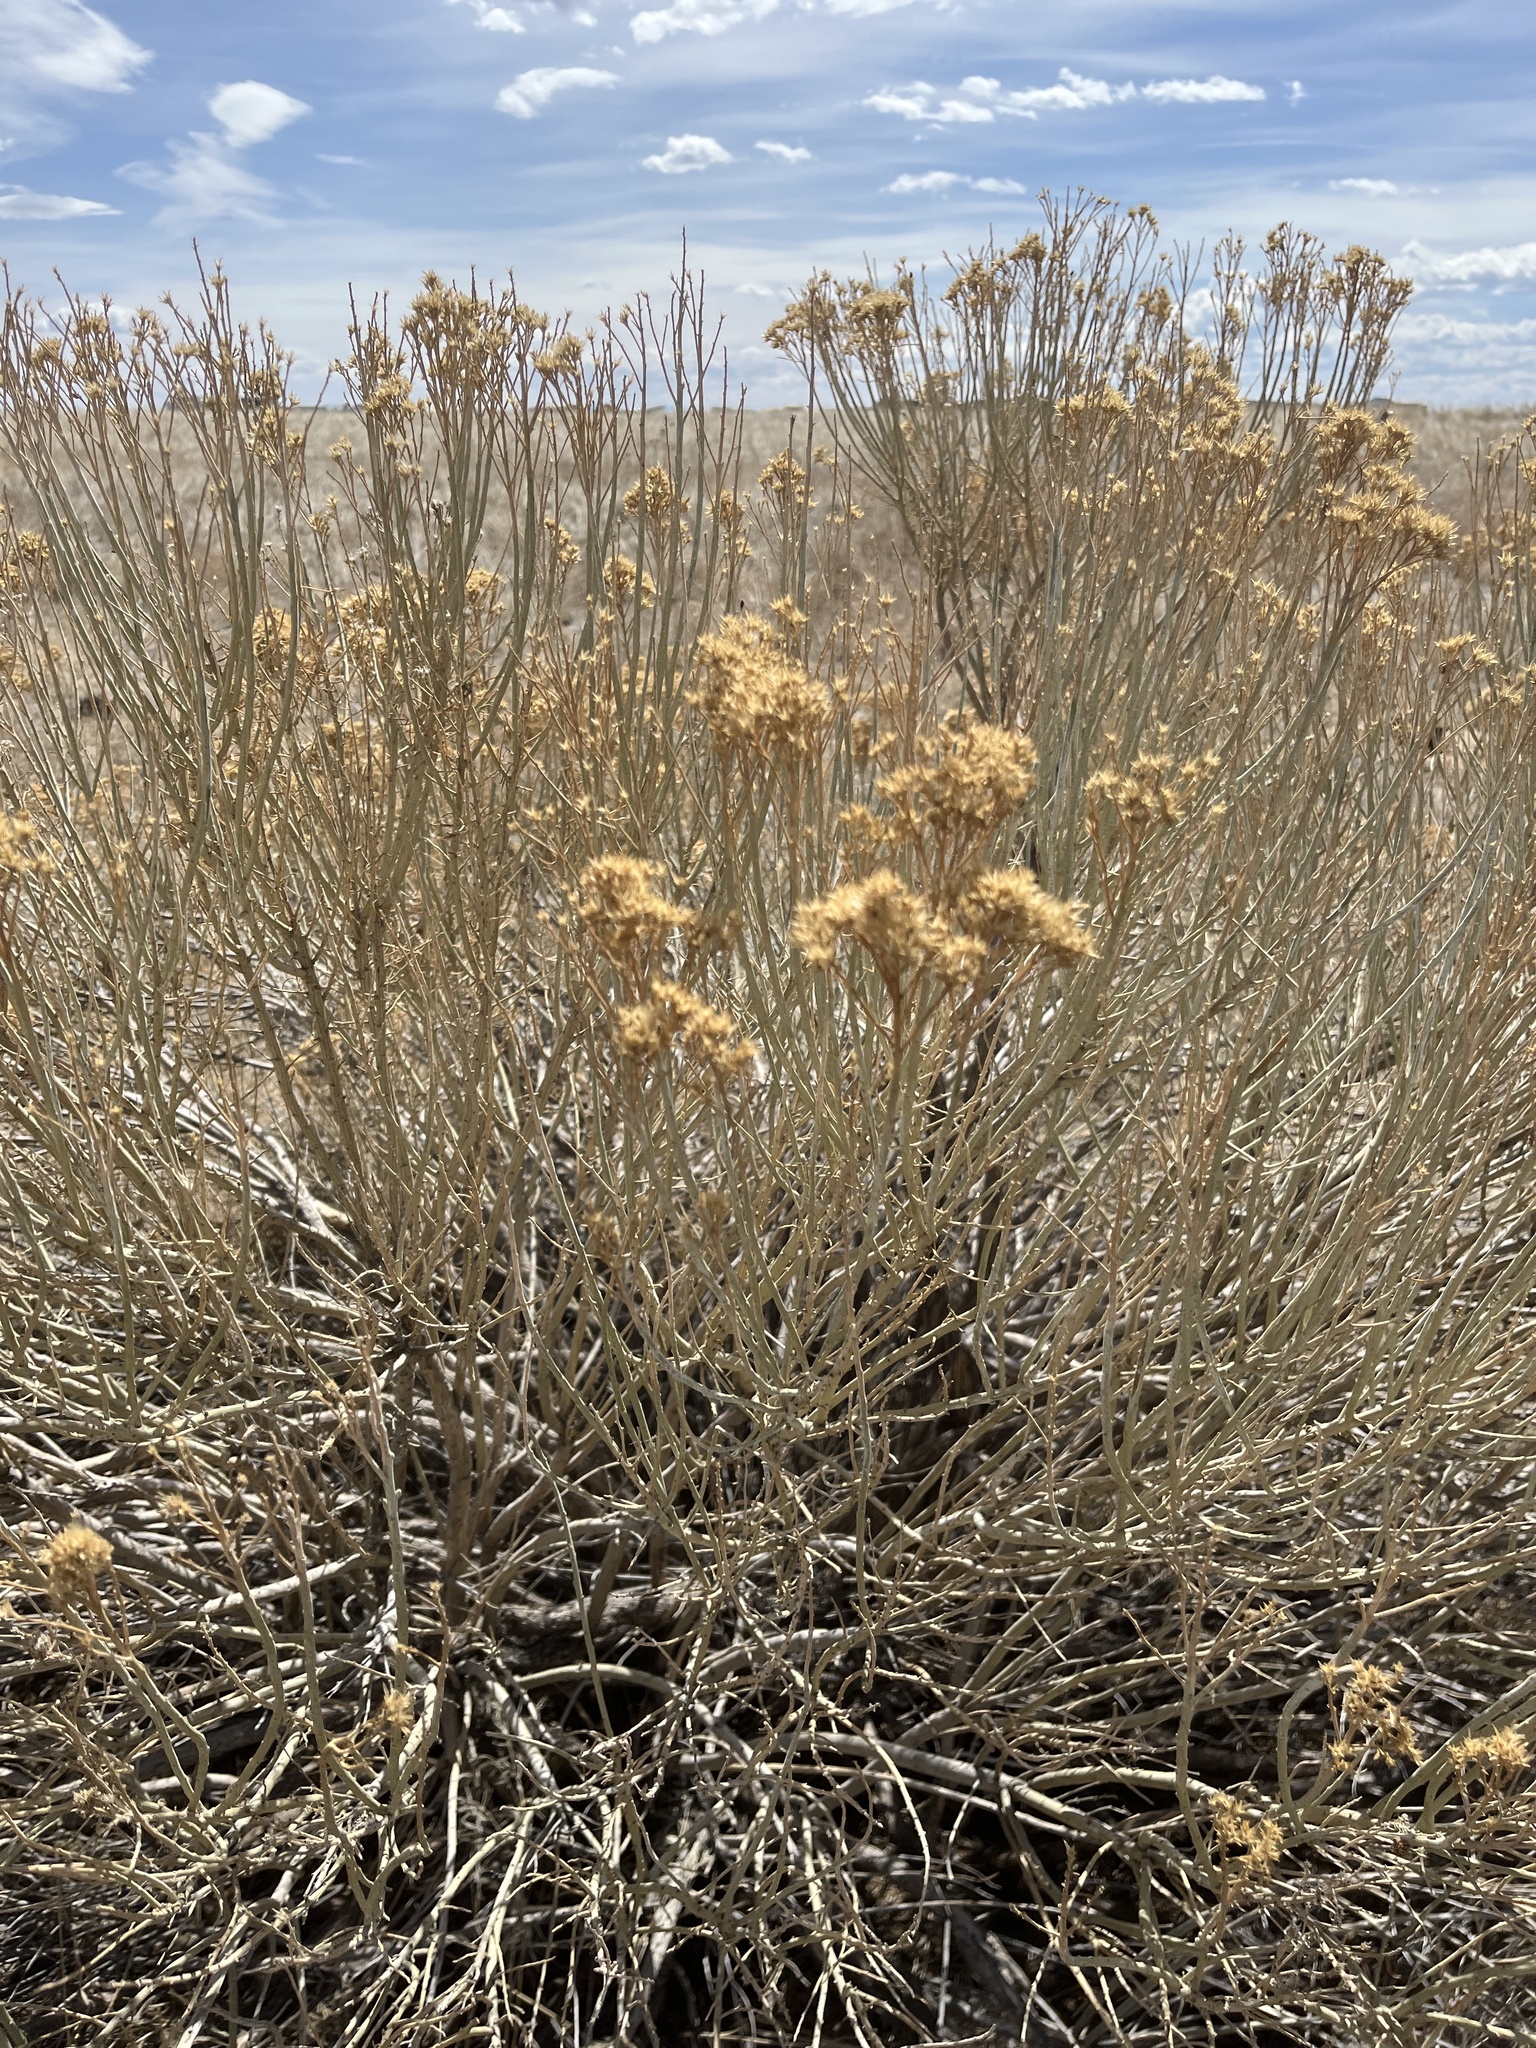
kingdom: Plantae
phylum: Tracheophyta
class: Magnoliopsida
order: Asterales
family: Asteraceae
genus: Ericameria
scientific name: Ericameria nauseosa
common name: Rubber rabbitbrush
